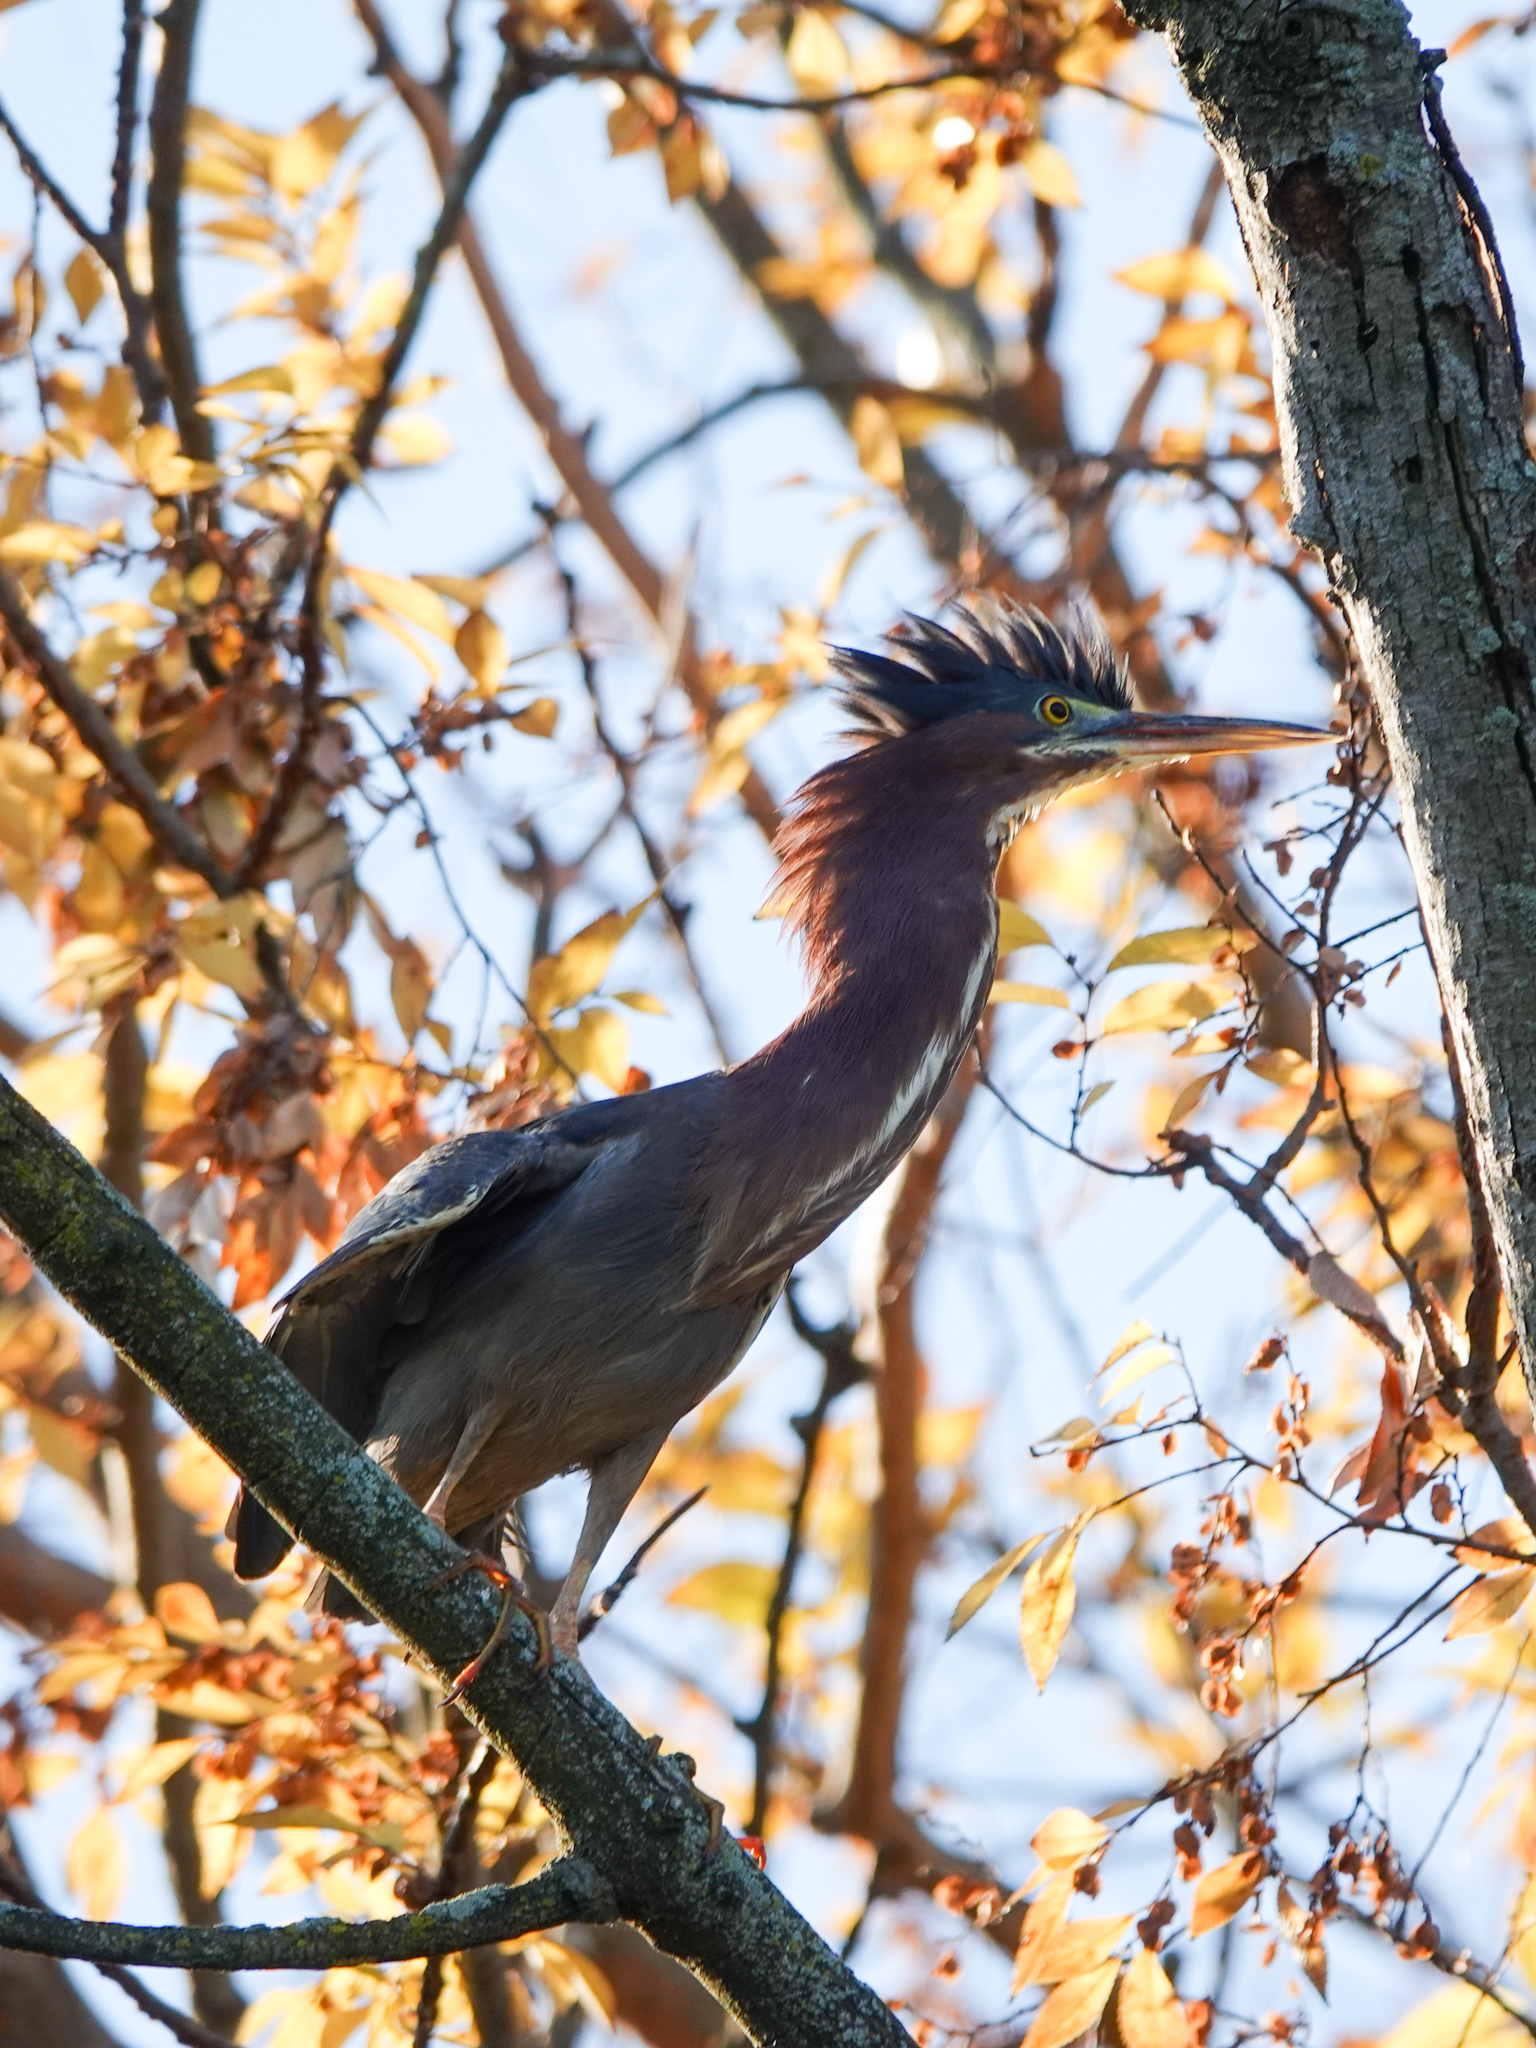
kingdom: Animalia
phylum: Chordata
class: Aves
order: Pelecaniformes
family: Ardeidae
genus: Butorides
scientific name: Butorides virescens
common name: Green heron
